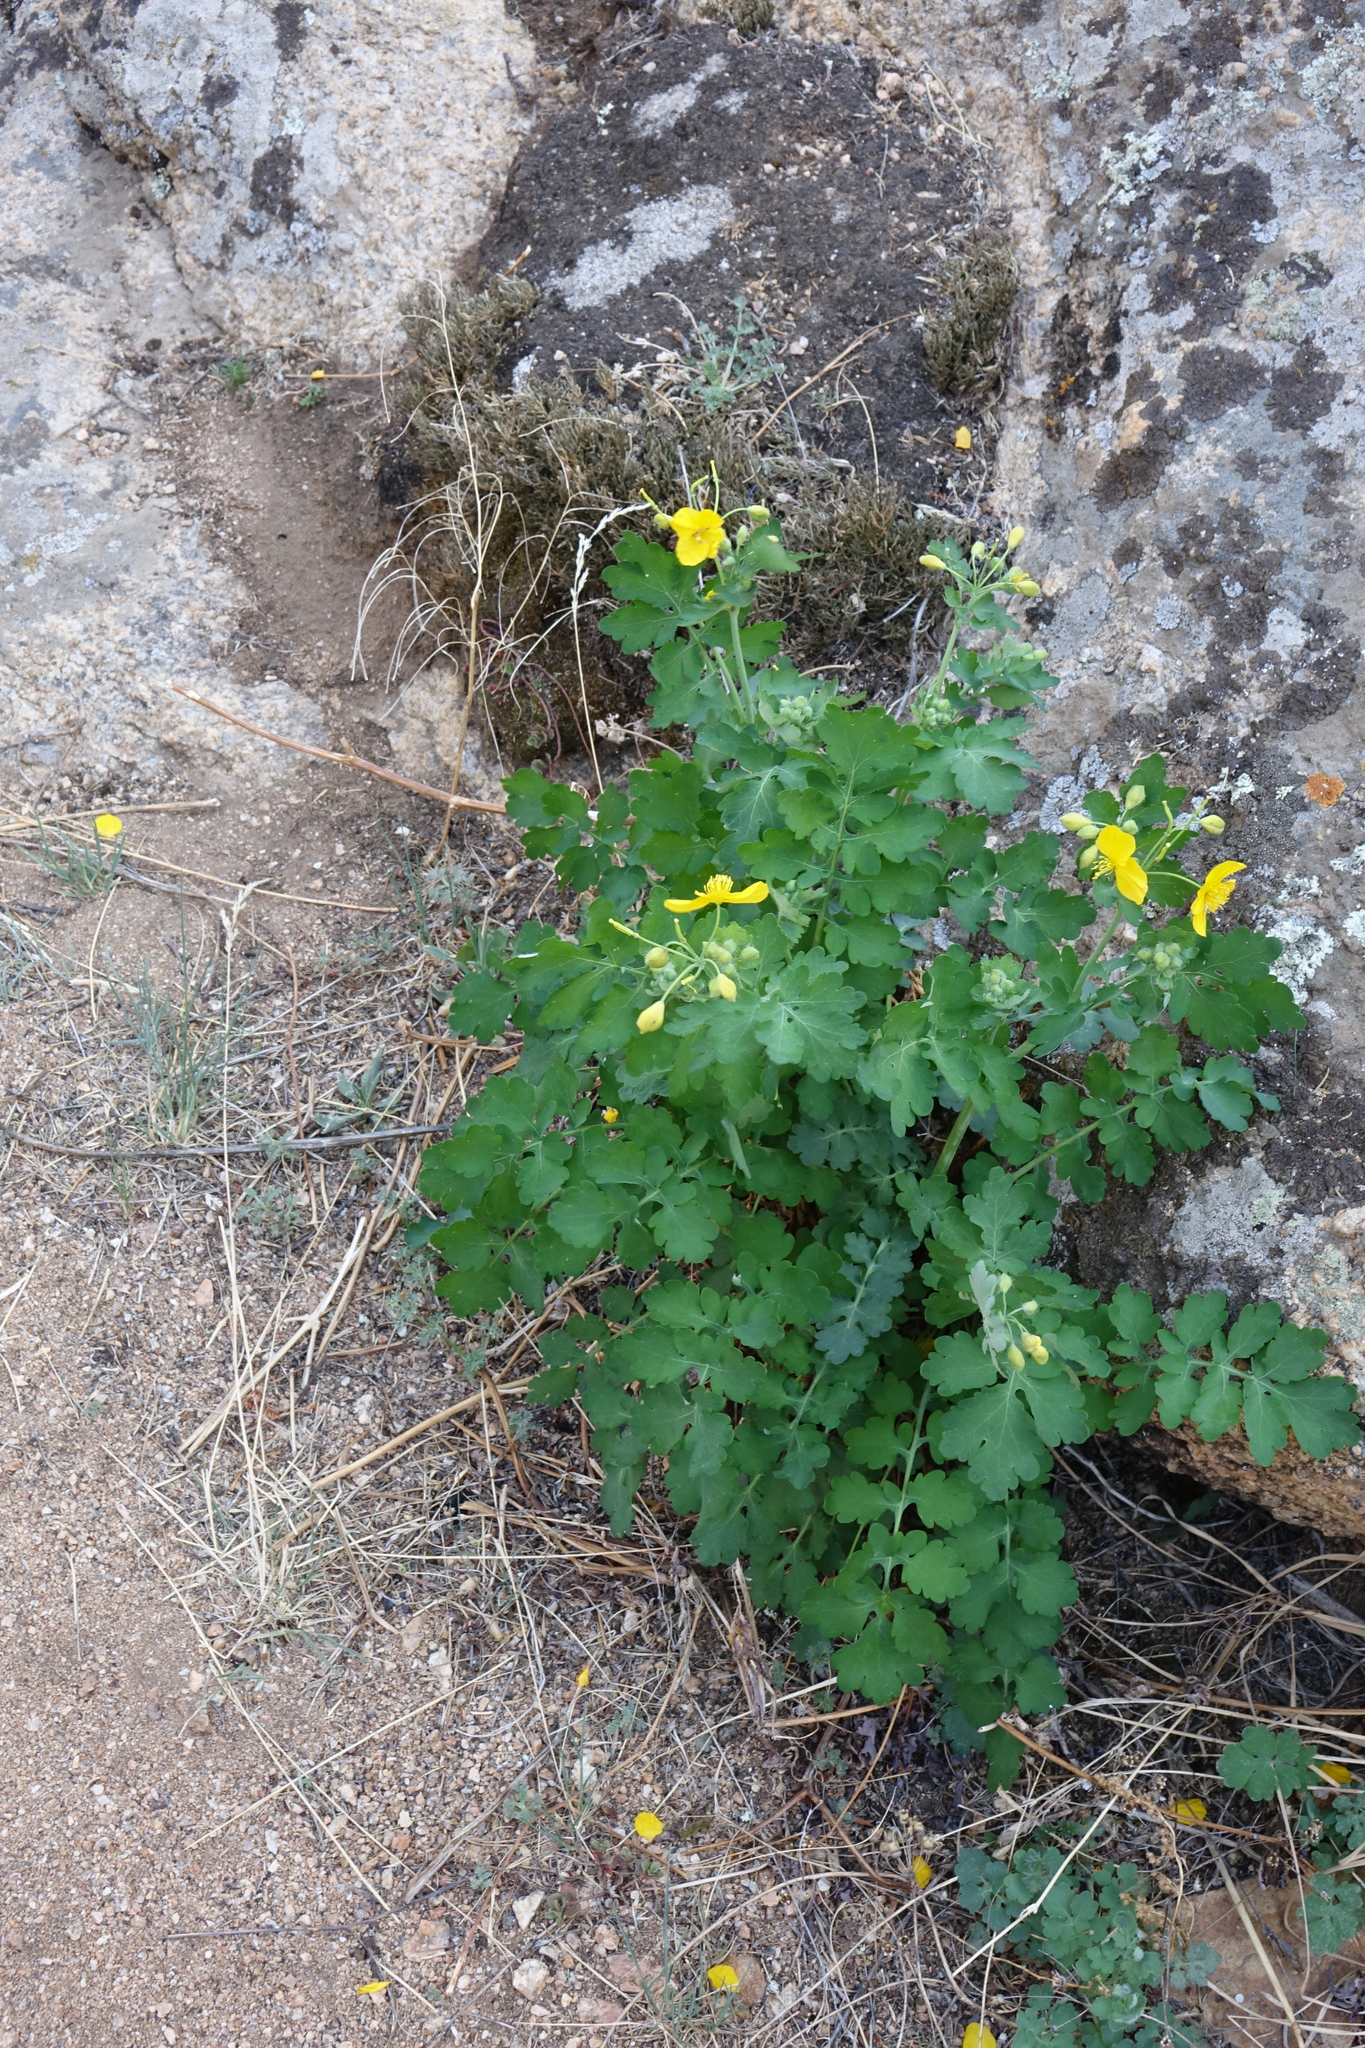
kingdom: Plantae
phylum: Tracheophyta
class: Magnoliopsida
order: Ranunculales
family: Papaveraceae
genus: Chelidonium
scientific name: Chelidonium majus
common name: Greater celandine
